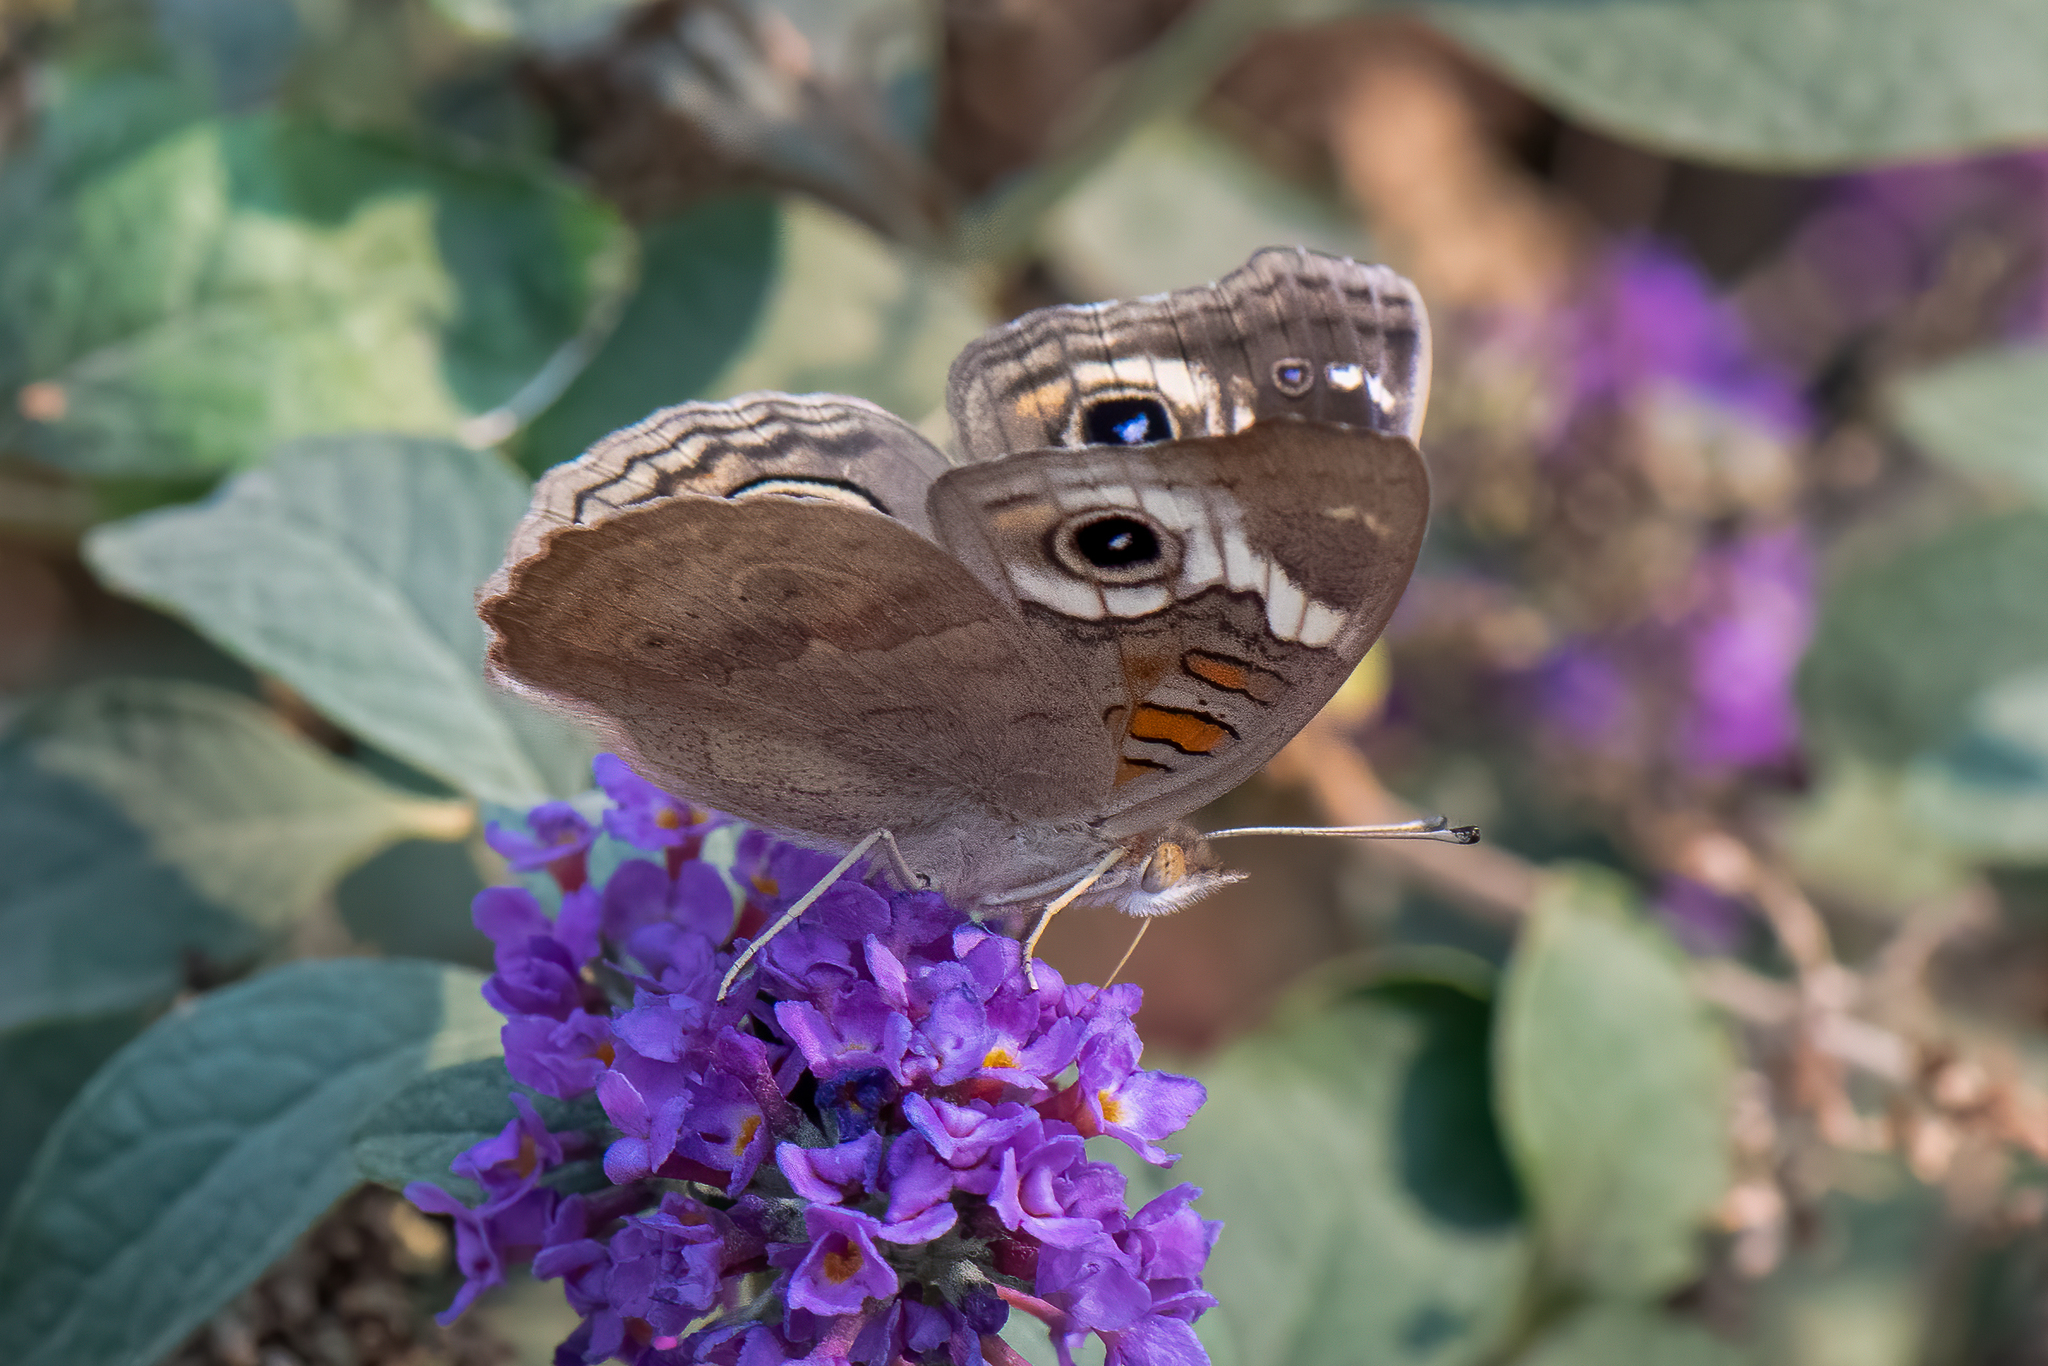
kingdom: Animalia
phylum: Arthropoda
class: Insecta
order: Lepidoptera
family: Nymphalidae
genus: Junonia
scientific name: Junonia grisea
